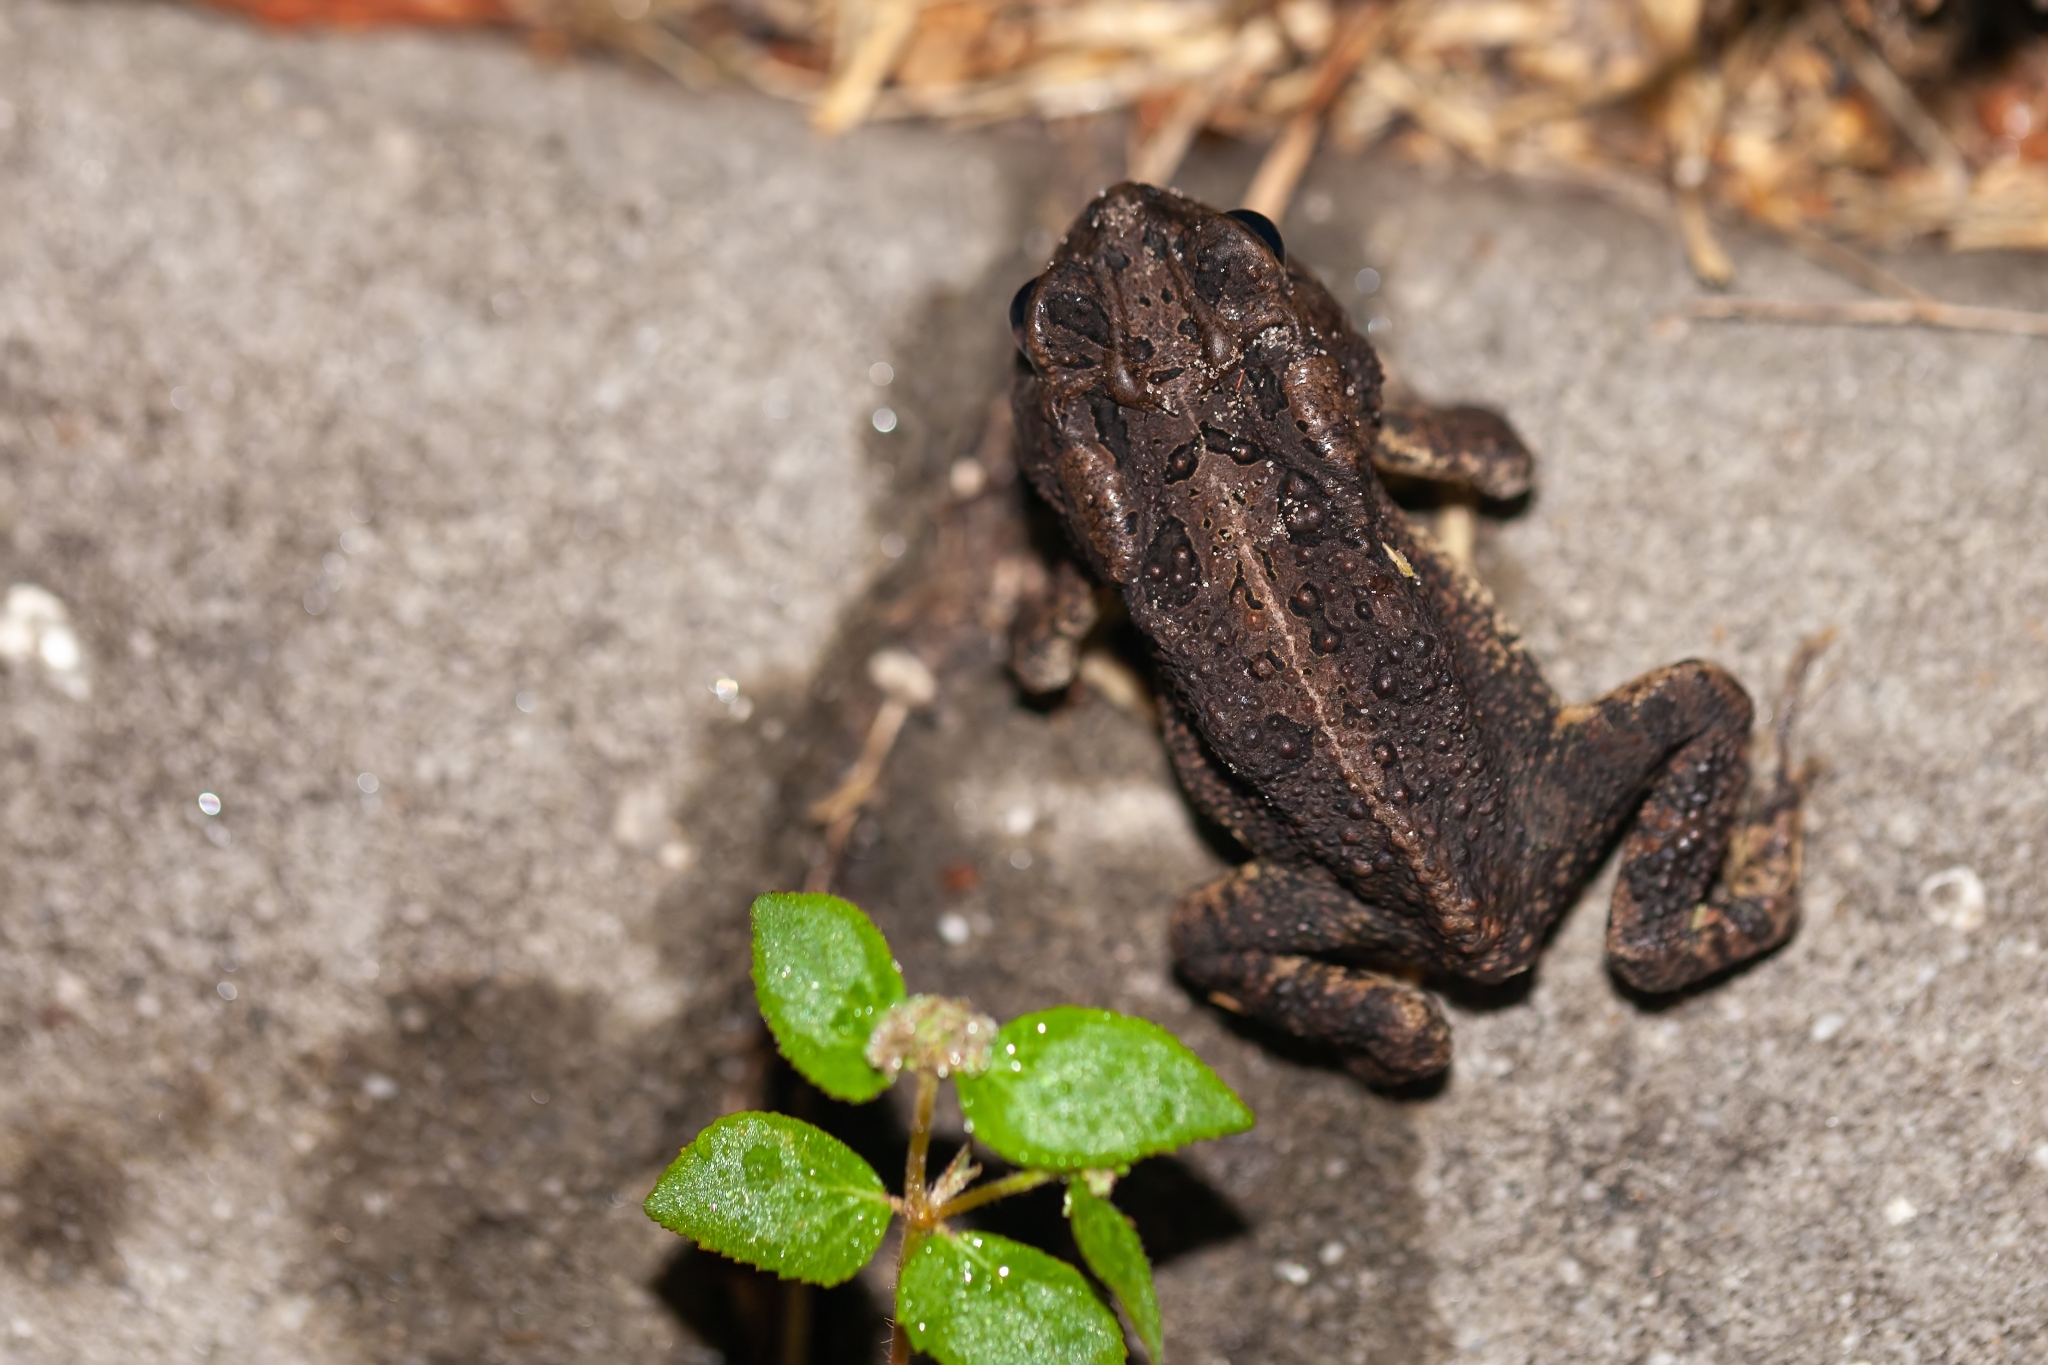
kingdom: Animalia
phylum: Chordata
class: Amphibia
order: Anura
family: Bufonidae
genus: Anaxyrus
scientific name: Anaxyrus terrestris
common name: Southern toad
